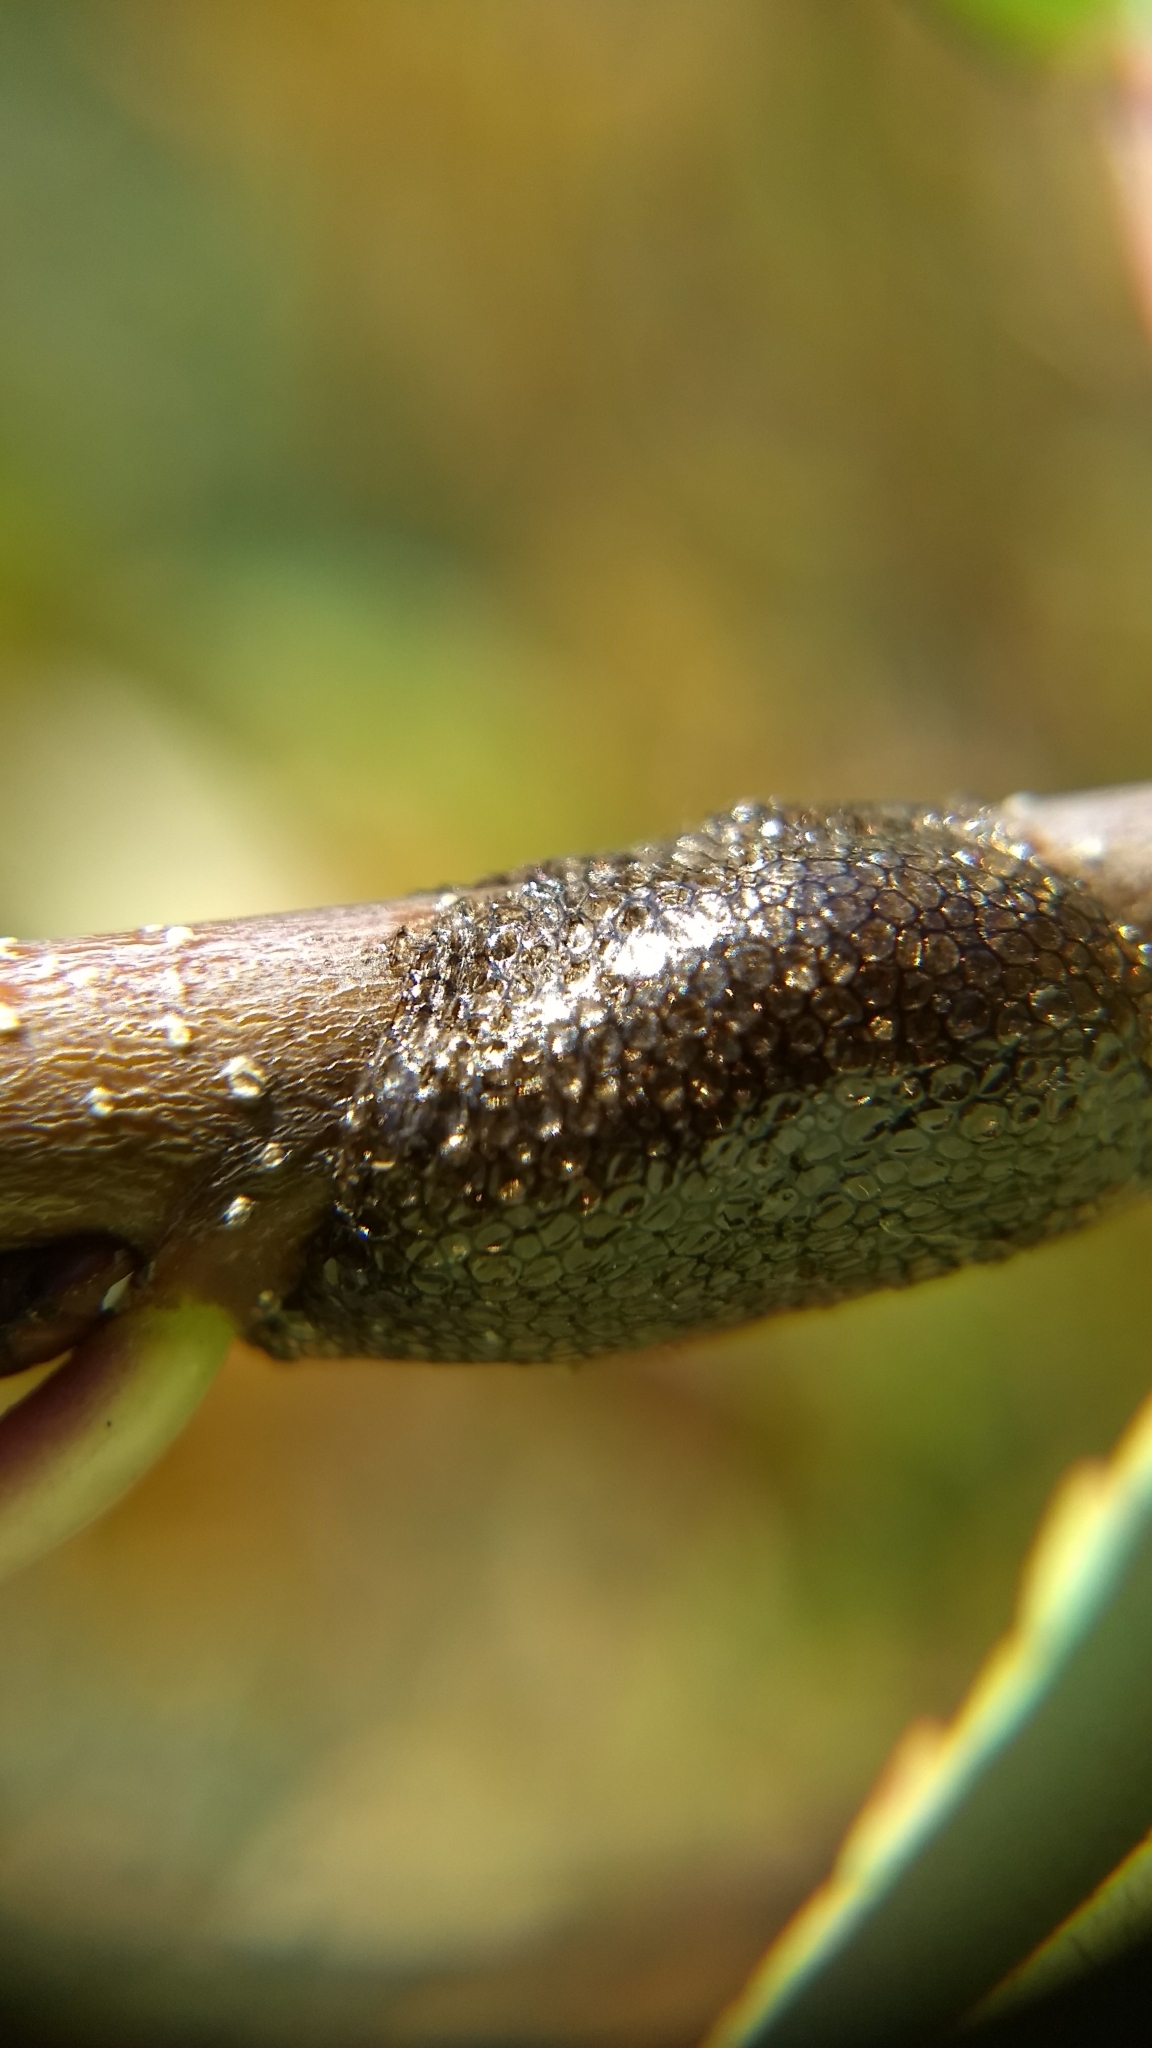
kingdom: Animalia
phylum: Arthropoda
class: Insecta
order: Lepidoptera
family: Lasiocampidae
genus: Malacosoma
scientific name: Malacosoma americana
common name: Eastern tent caterpillar moth
